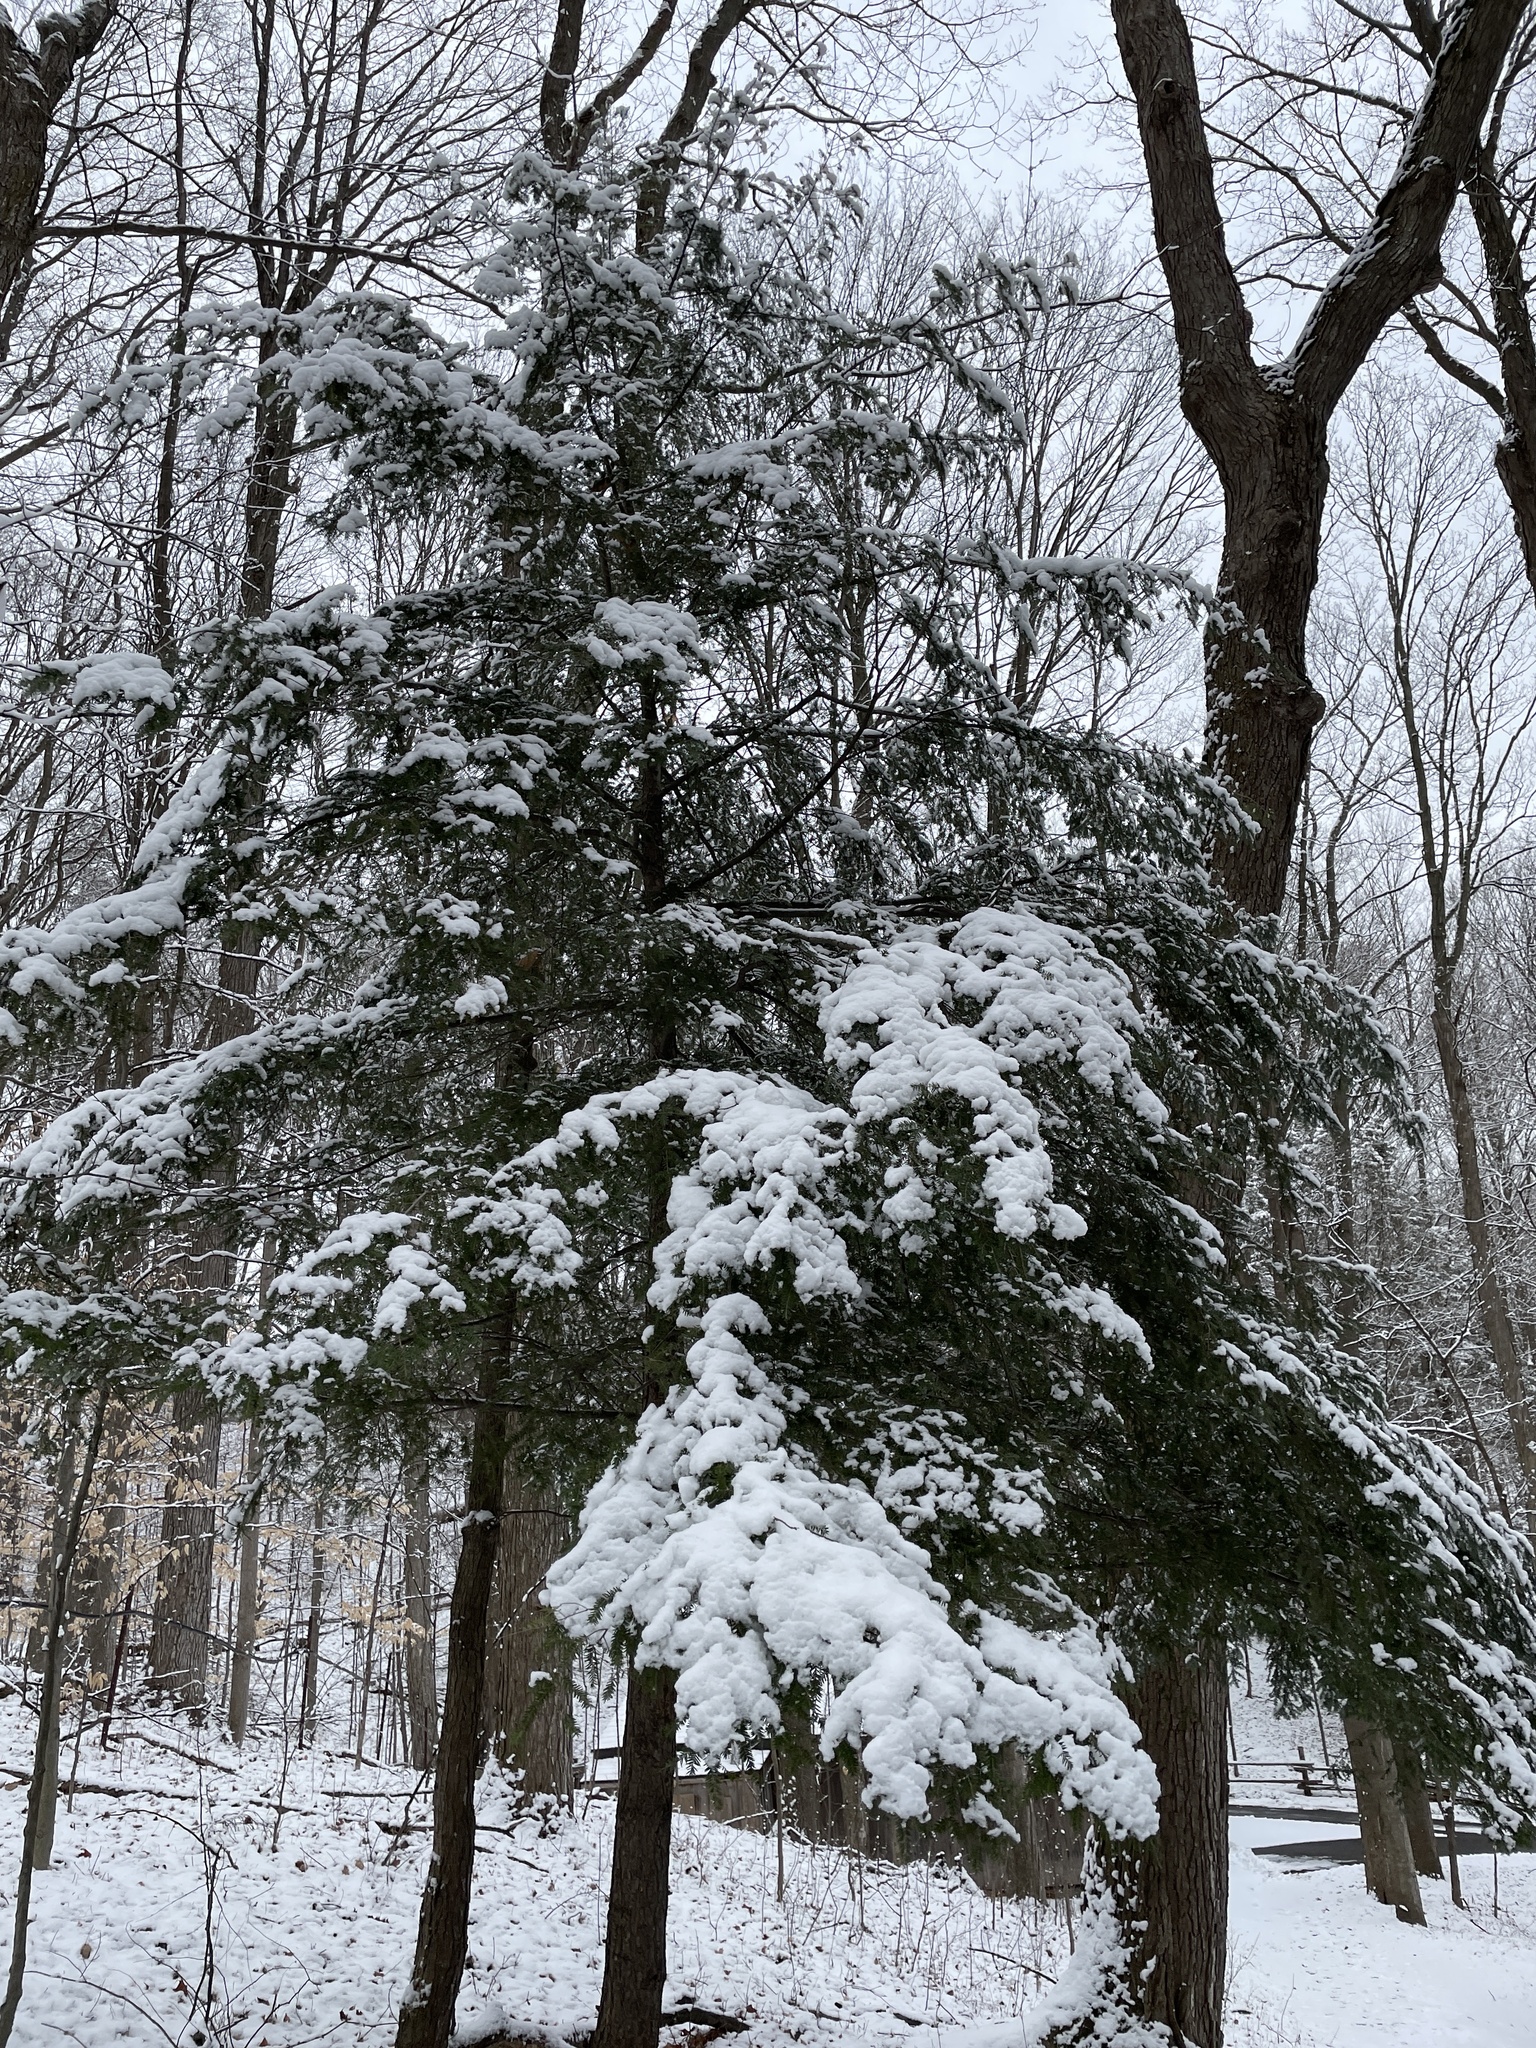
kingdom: Plantae
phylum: Tracheophyta
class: Pinopsida
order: Pinales
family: Pinaceae
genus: Tsuga
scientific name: Tsuga canadensis
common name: Eastern hemlock
